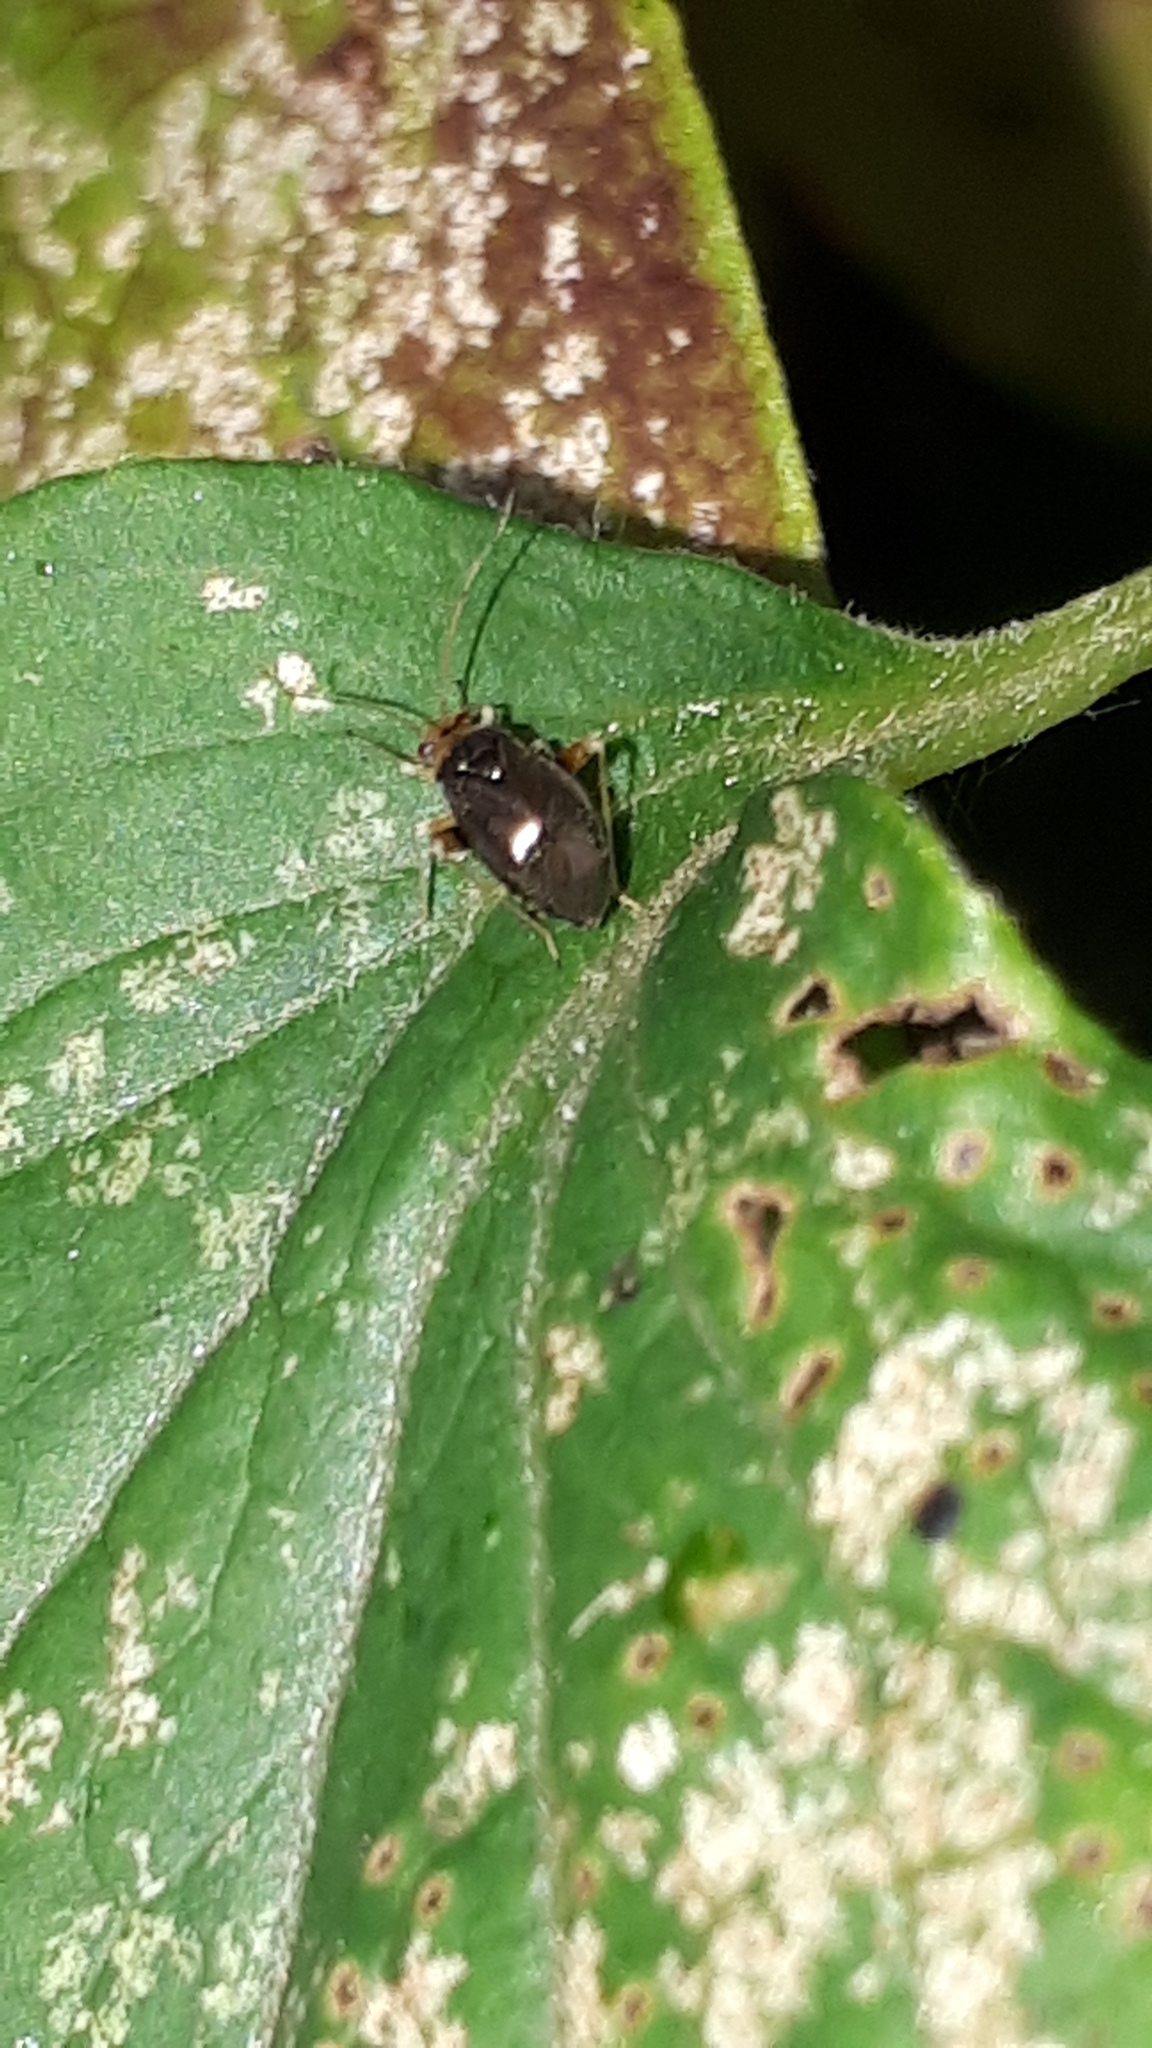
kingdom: Animalia
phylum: Arthropoda
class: Insecta
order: Hemiptera
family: Miridae
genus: Halticus
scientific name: Halticus luteicollis
